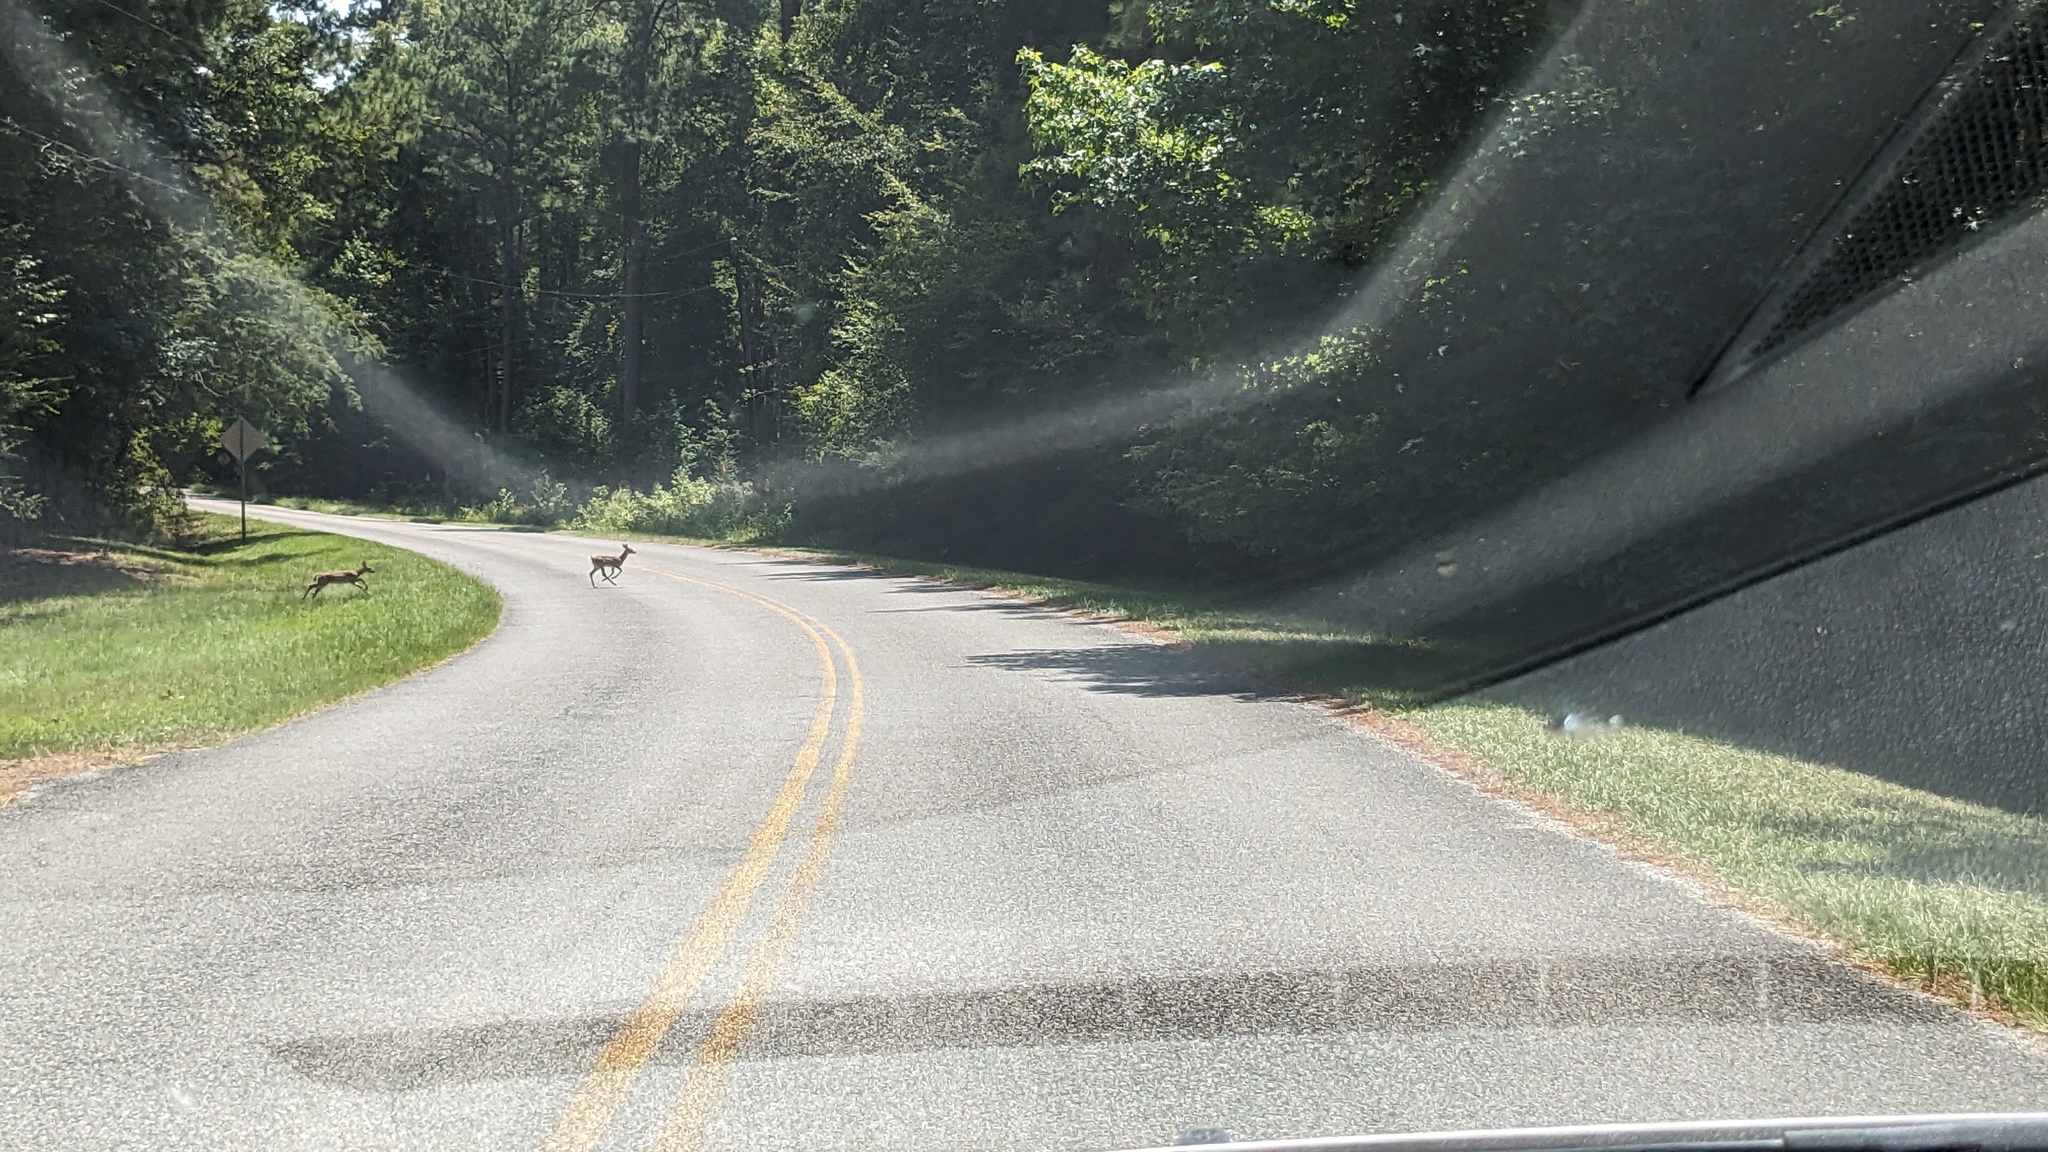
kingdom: Animalia
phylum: Chordata
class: Mammalia
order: Artiodactyla
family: Cervidae
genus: Odocoileus
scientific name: Odocoileus virginianus
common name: White-tailed deer
